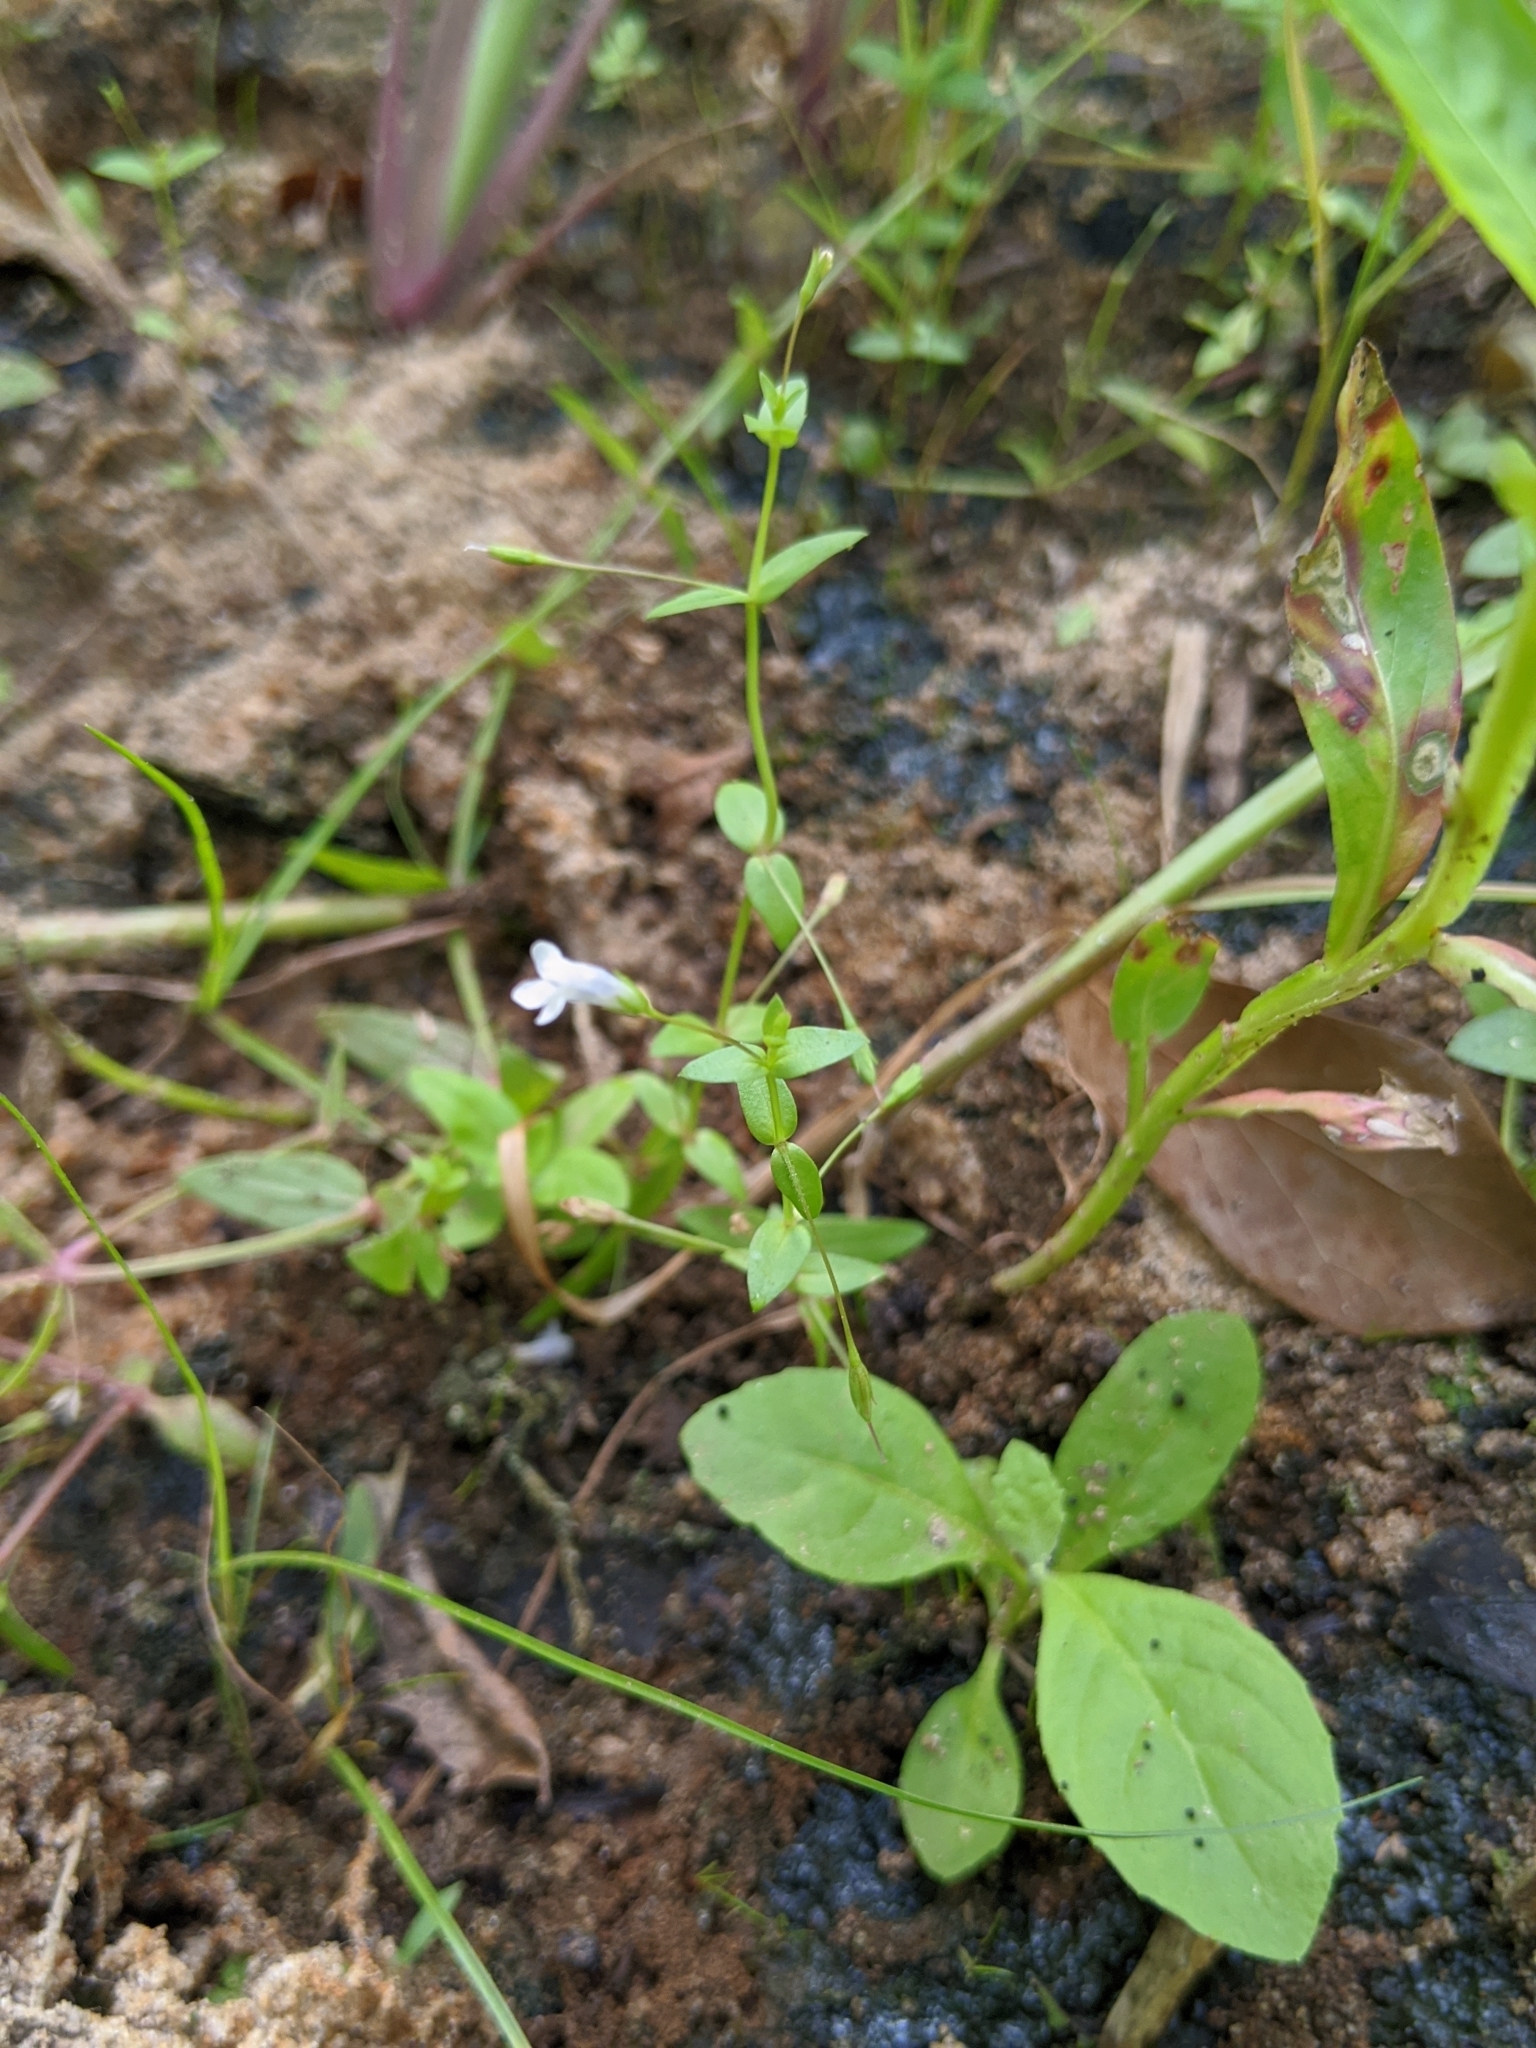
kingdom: Plantae
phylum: Tracheophyta
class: Magnoliopsida
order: Lamiales
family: Linderniaceae
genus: Lindernia
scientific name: Lindernia dubia
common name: Annual false pimpernel
